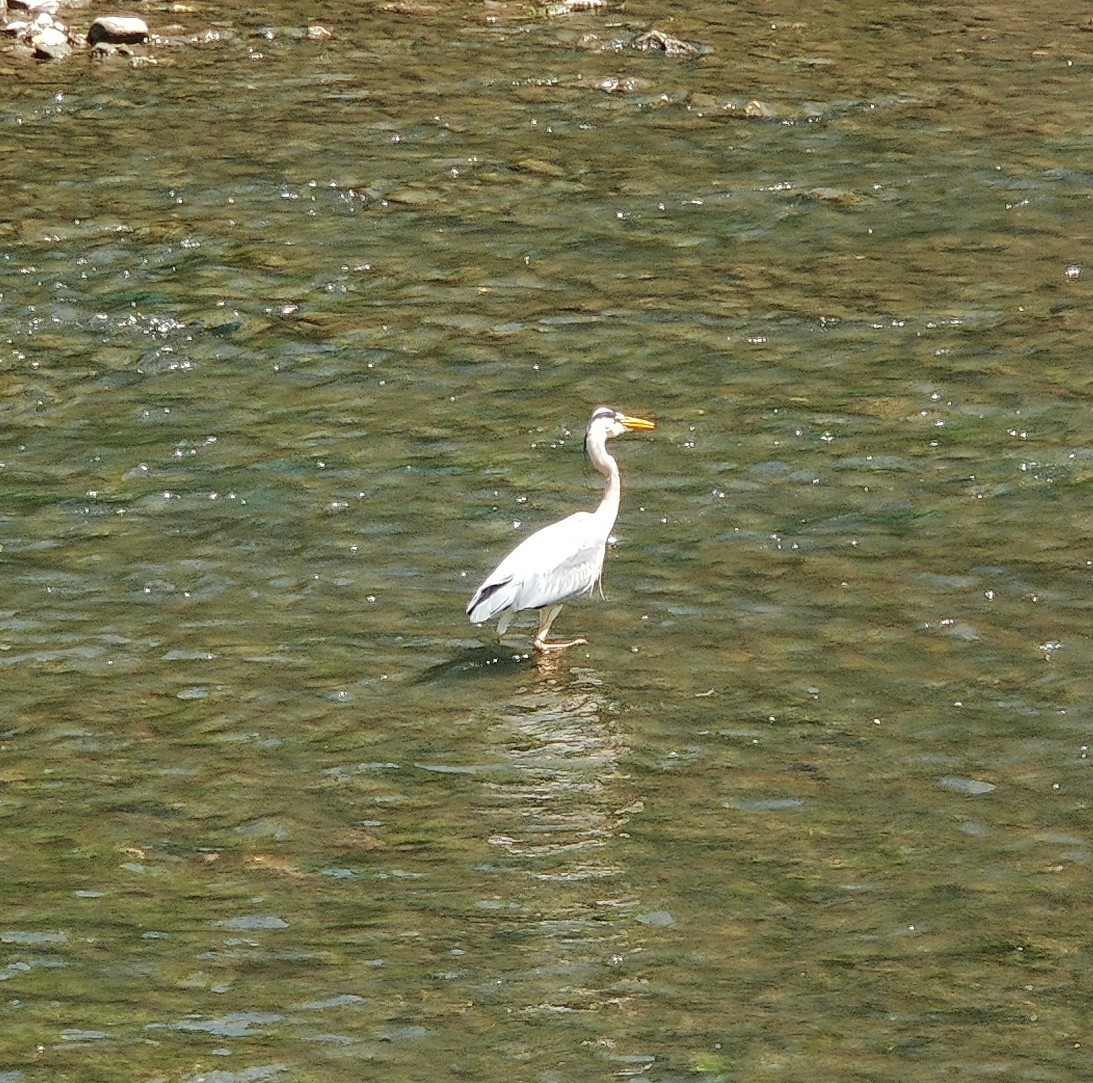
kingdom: Animalia
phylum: Chordata
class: Aves
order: Pelecaniformes
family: Ardeidae
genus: Ardea
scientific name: Ardea cinerea
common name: Grey heron
